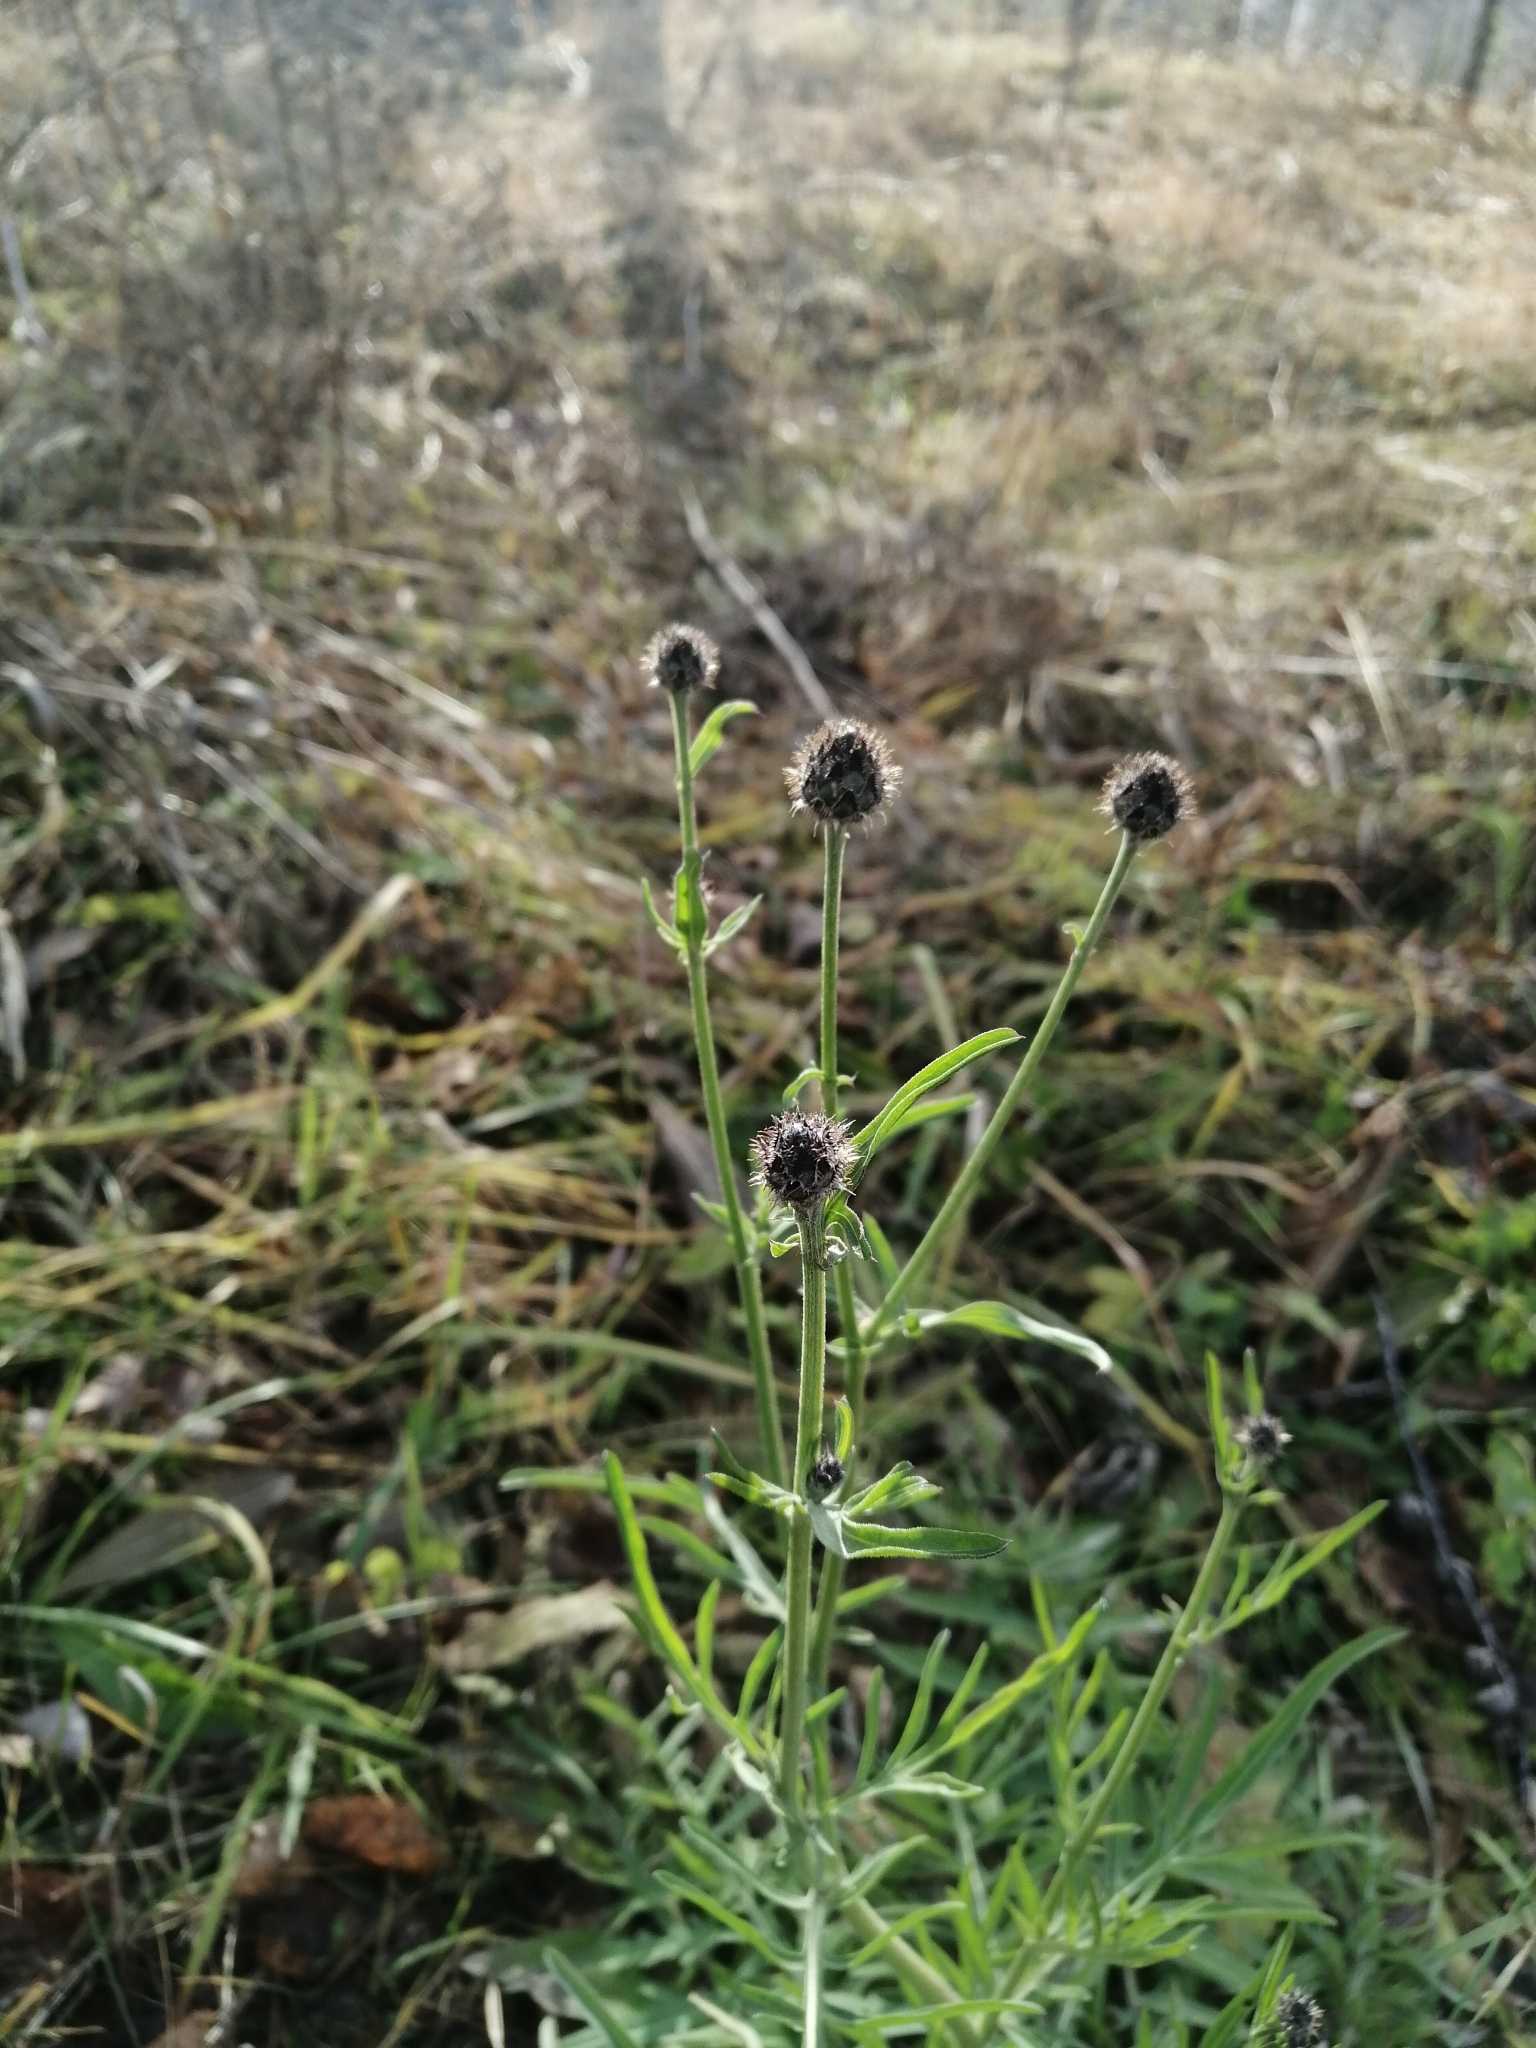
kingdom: Plantae
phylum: Tracheophyta
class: Magnoliopsida
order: Asterales
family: Asteraceae
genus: Centaurea
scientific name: Centaurea scabiosa
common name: Greater knapweed
